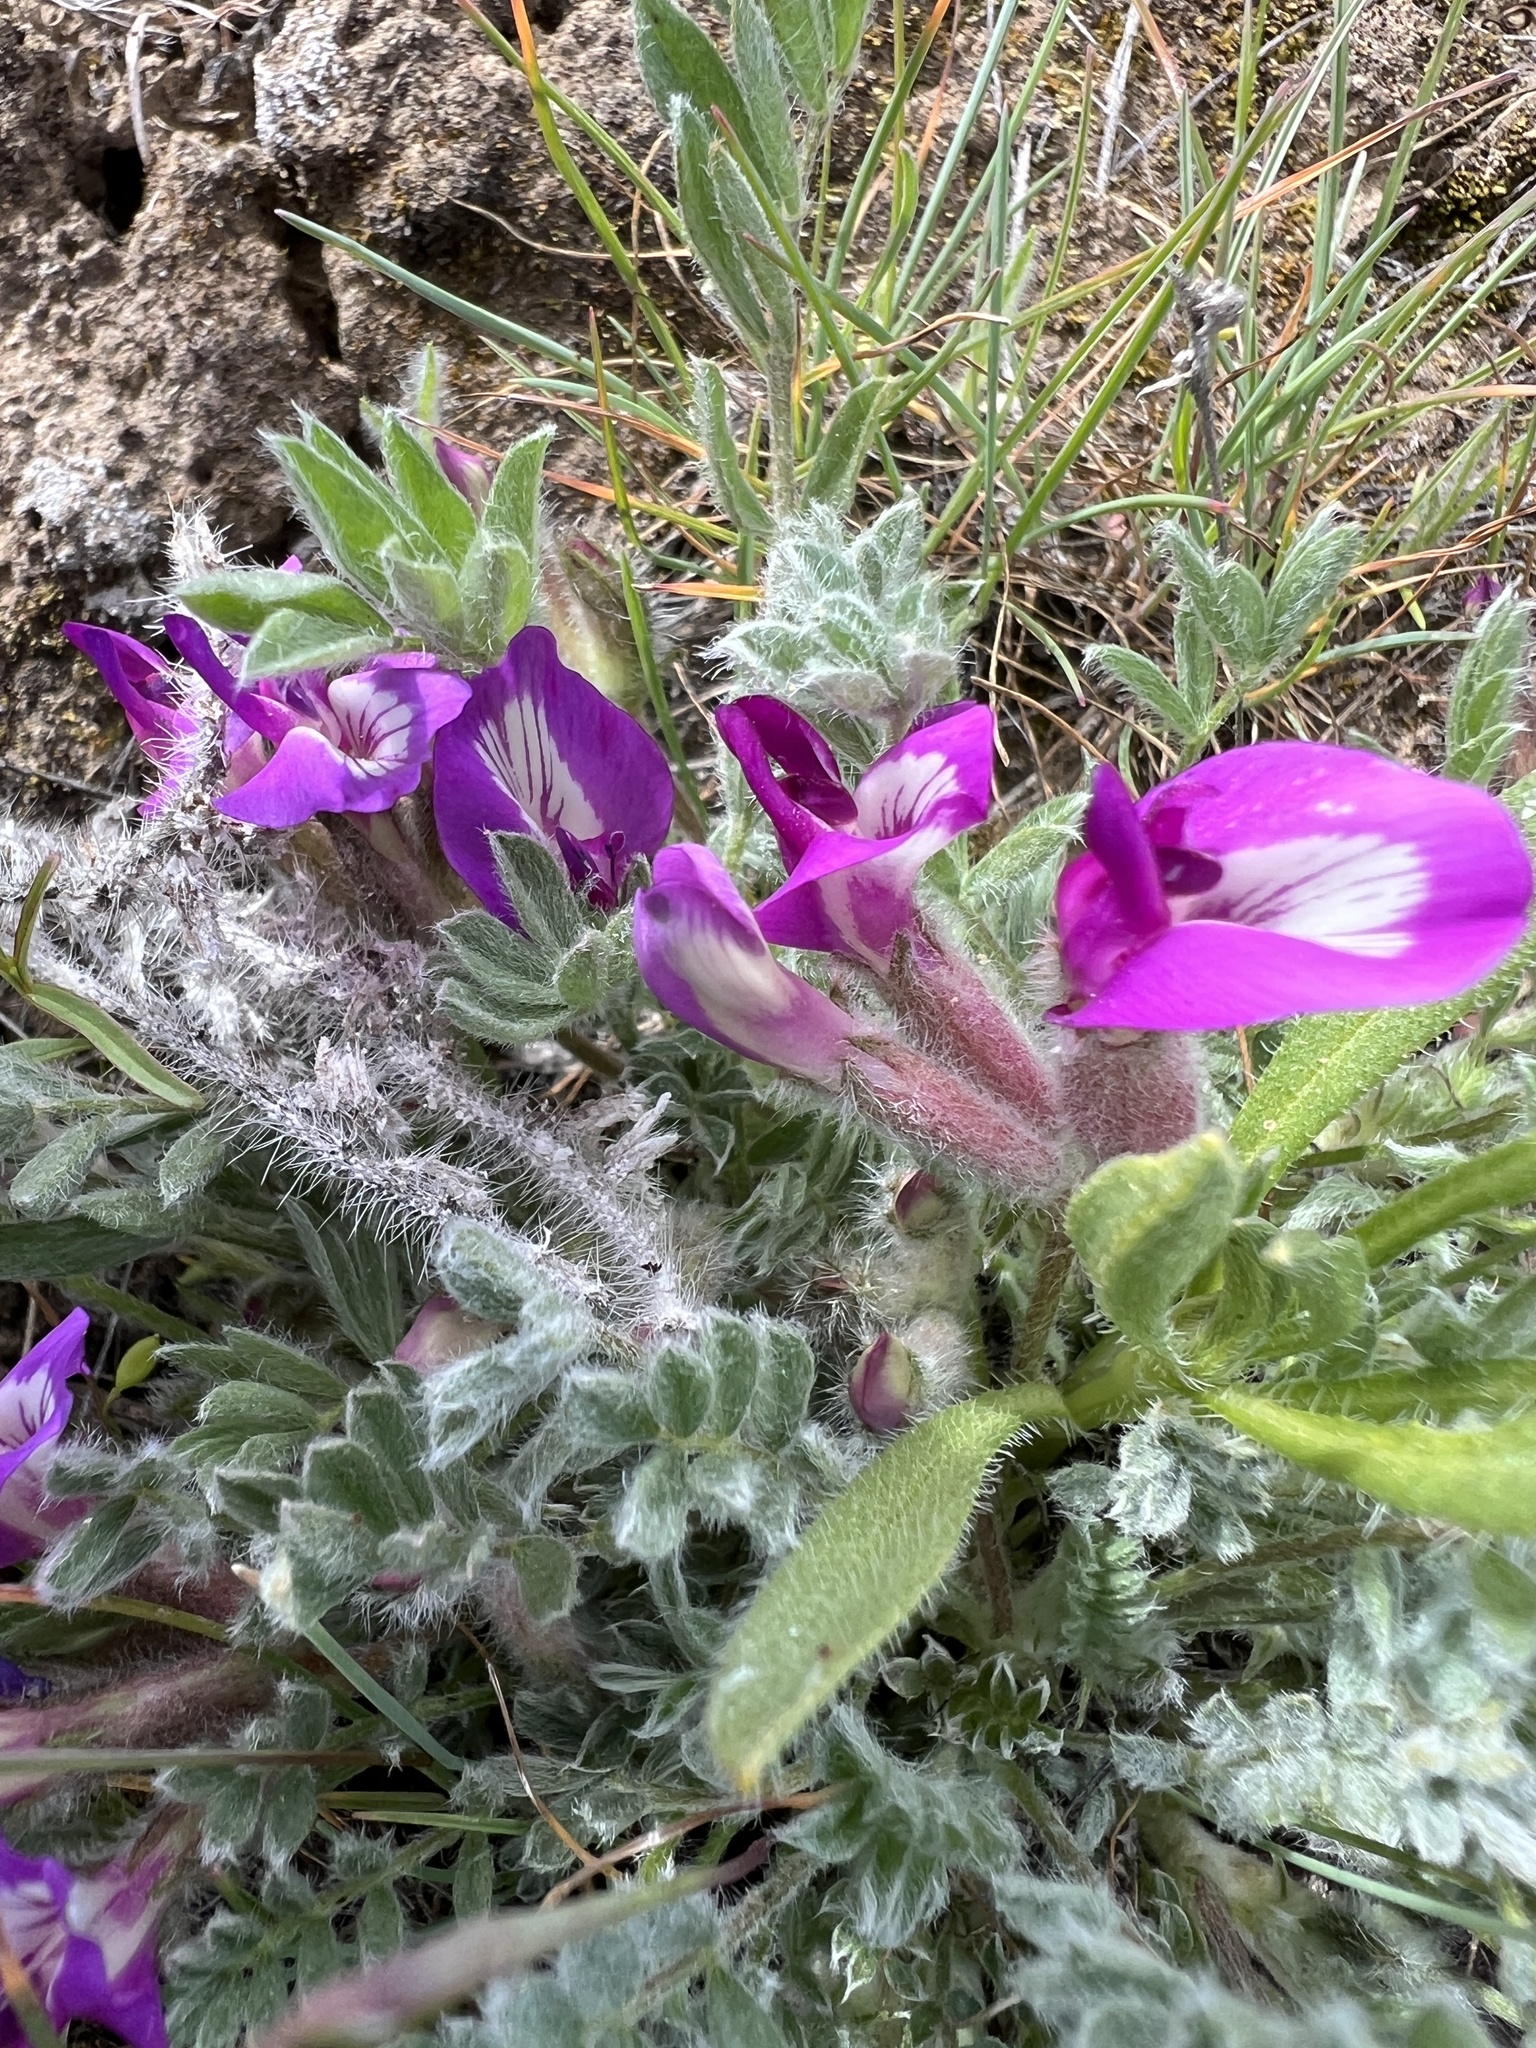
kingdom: Plantae
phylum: Tracheophyta
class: Magnoliopsida
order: Fabales
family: Fabaceae
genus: Astragalus
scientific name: Astragalus purshii
